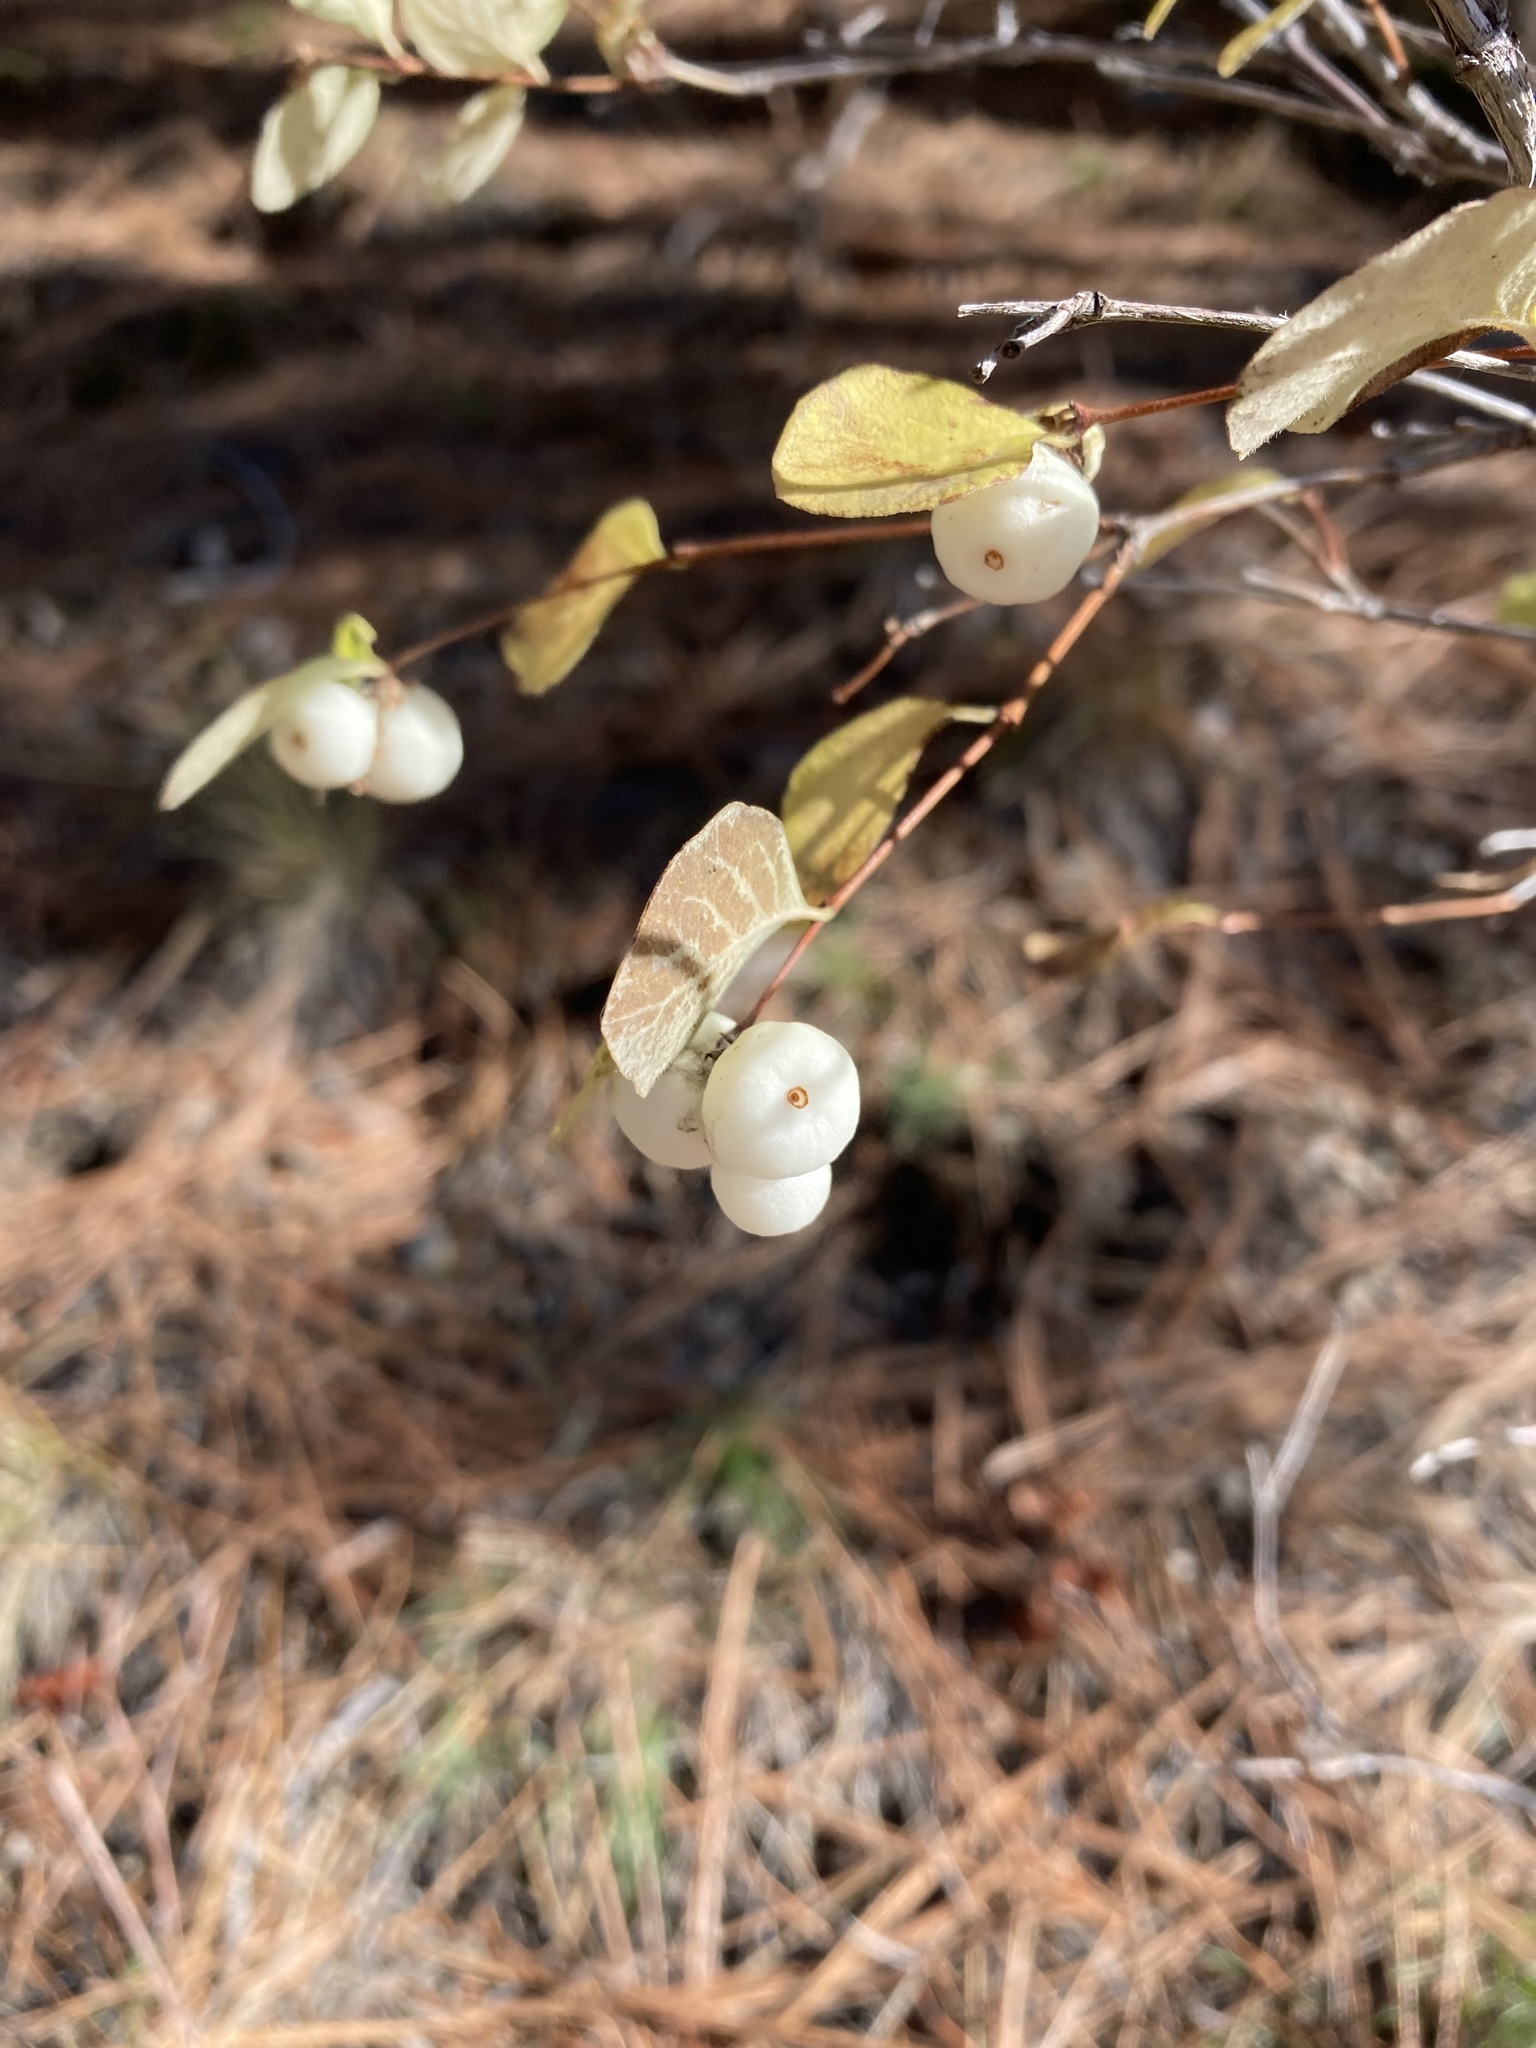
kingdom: Plantae
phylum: Tracheophyta
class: Magnoliopsida
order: Dipsacales
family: Caprifoliaceae
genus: Symphoricarpos
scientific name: Symphoricarpos albus
